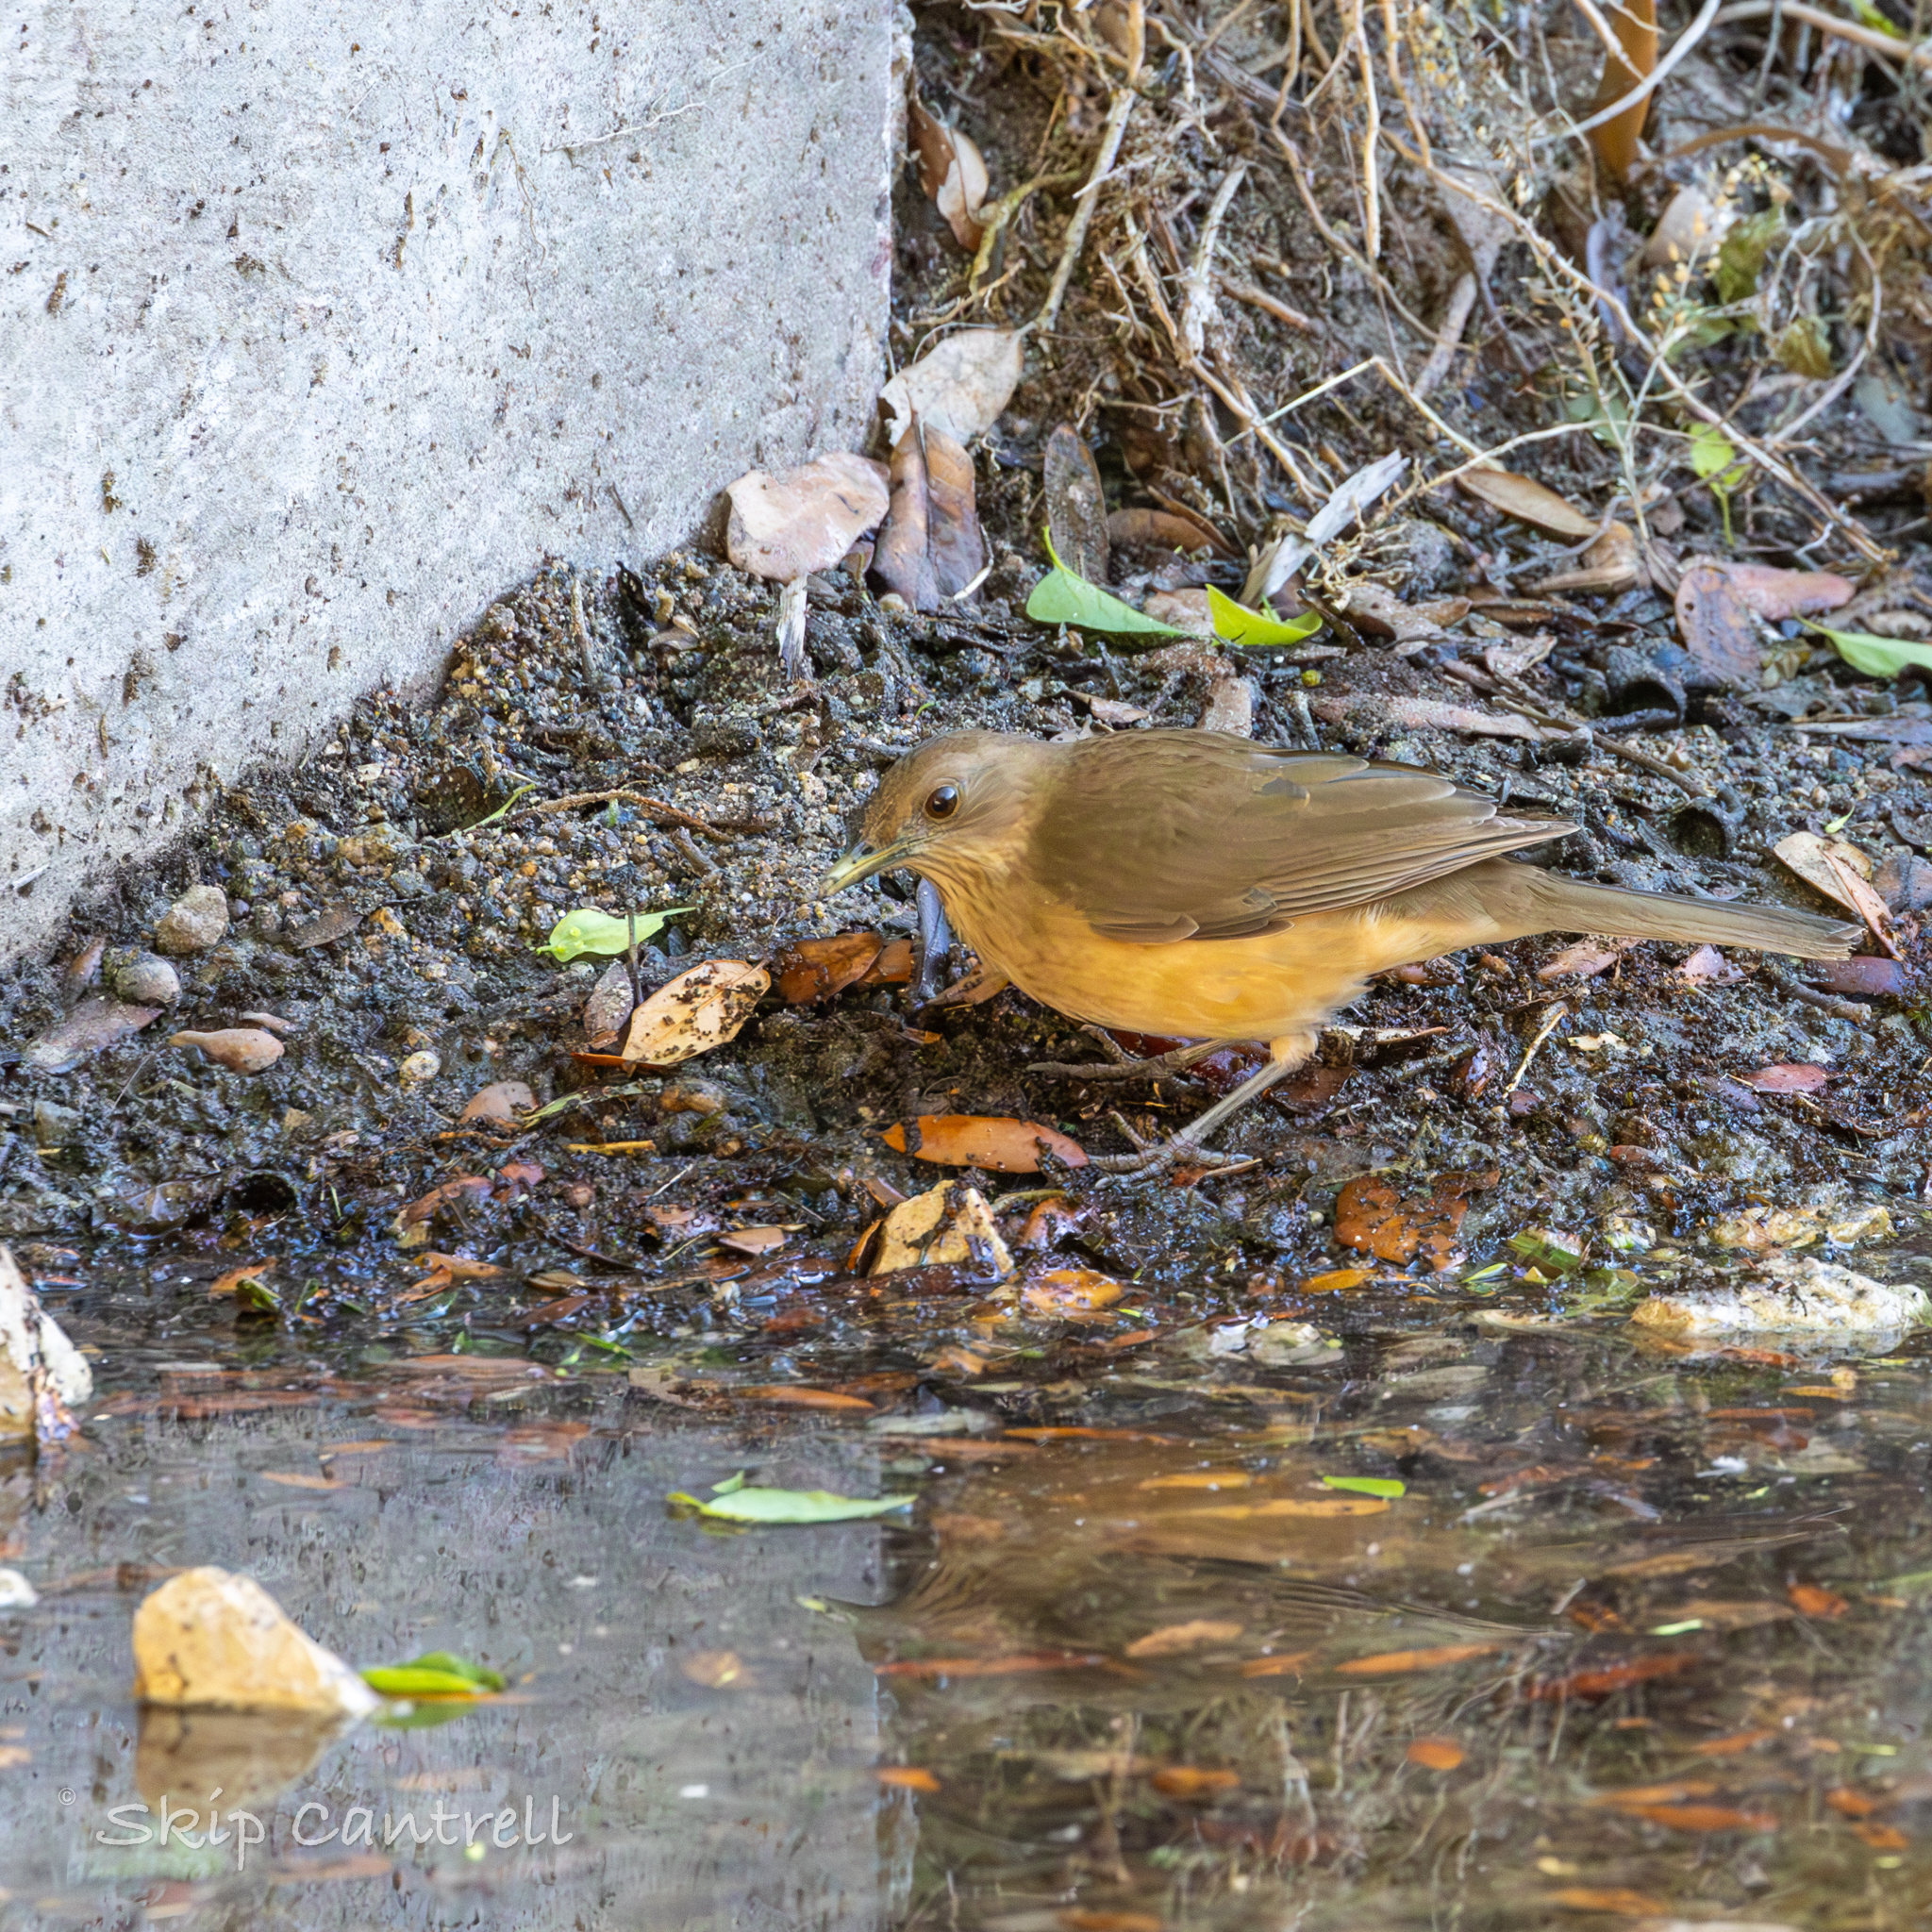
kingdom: Animalia
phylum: Chordata
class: Aves
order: Passeriformes
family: Turdidae
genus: Turdus
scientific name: Turdus grayi
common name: Clay-colored thrush
